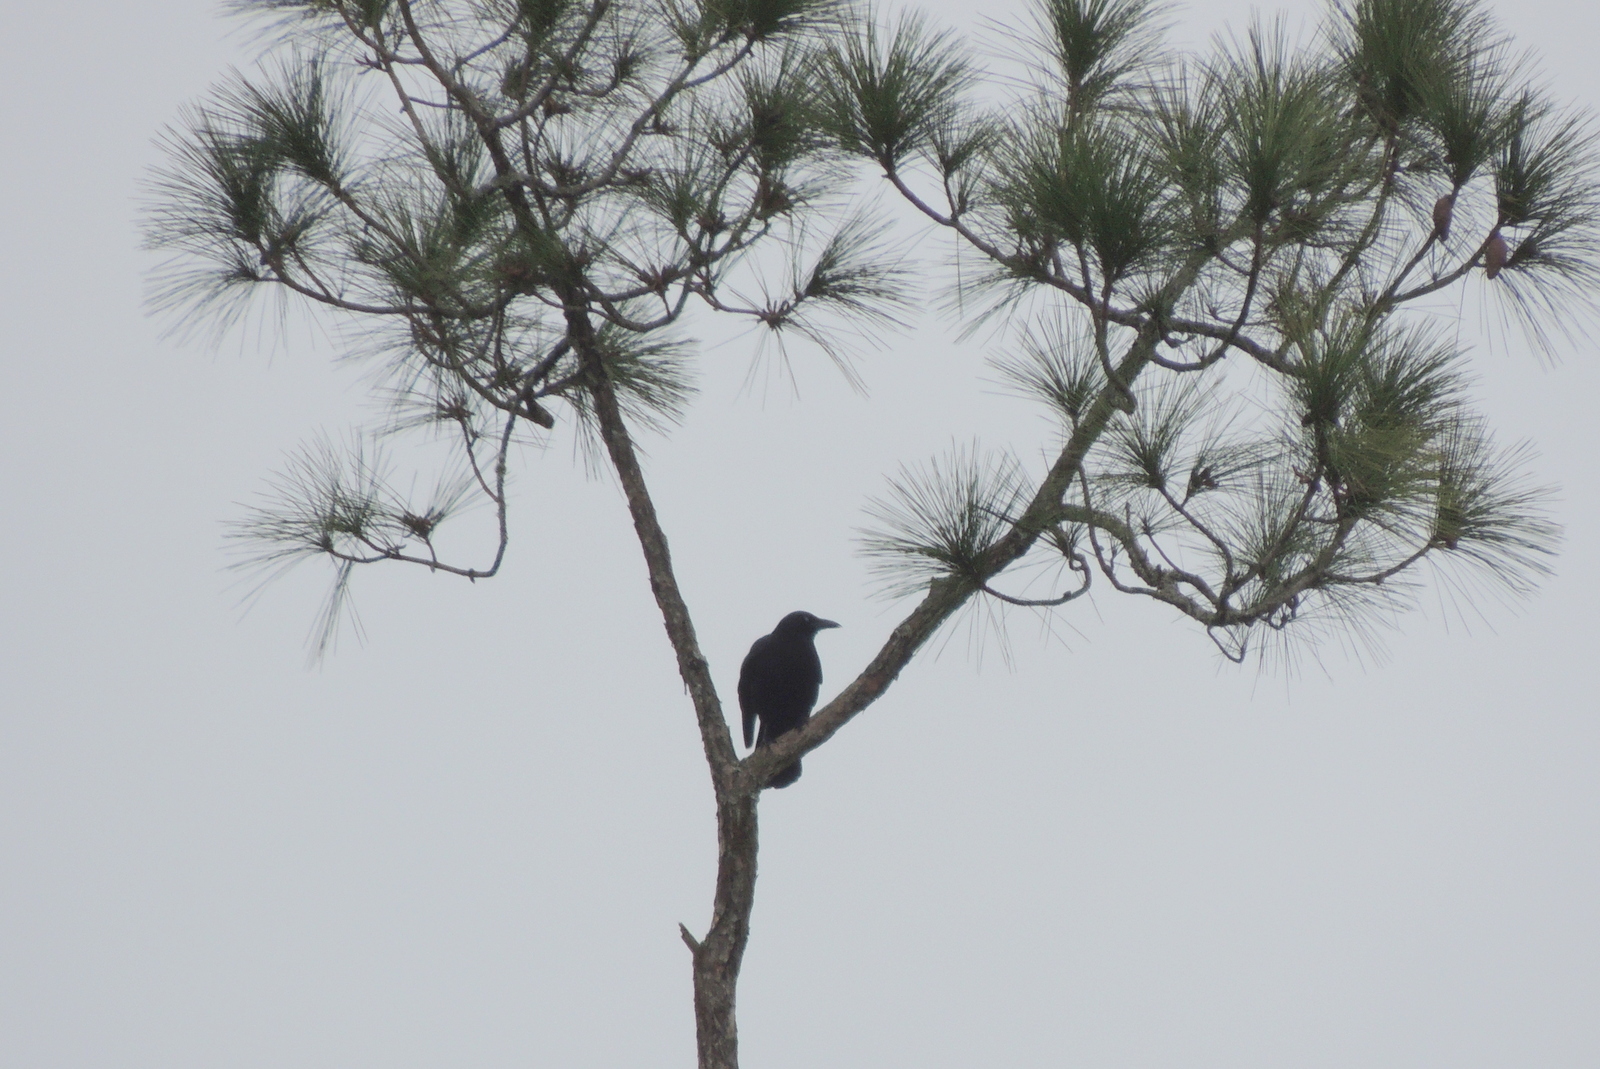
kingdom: Animalia
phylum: Chordata
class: Aves
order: Passeriformes
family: Corvidae
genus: Corvus
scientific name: Corvus
